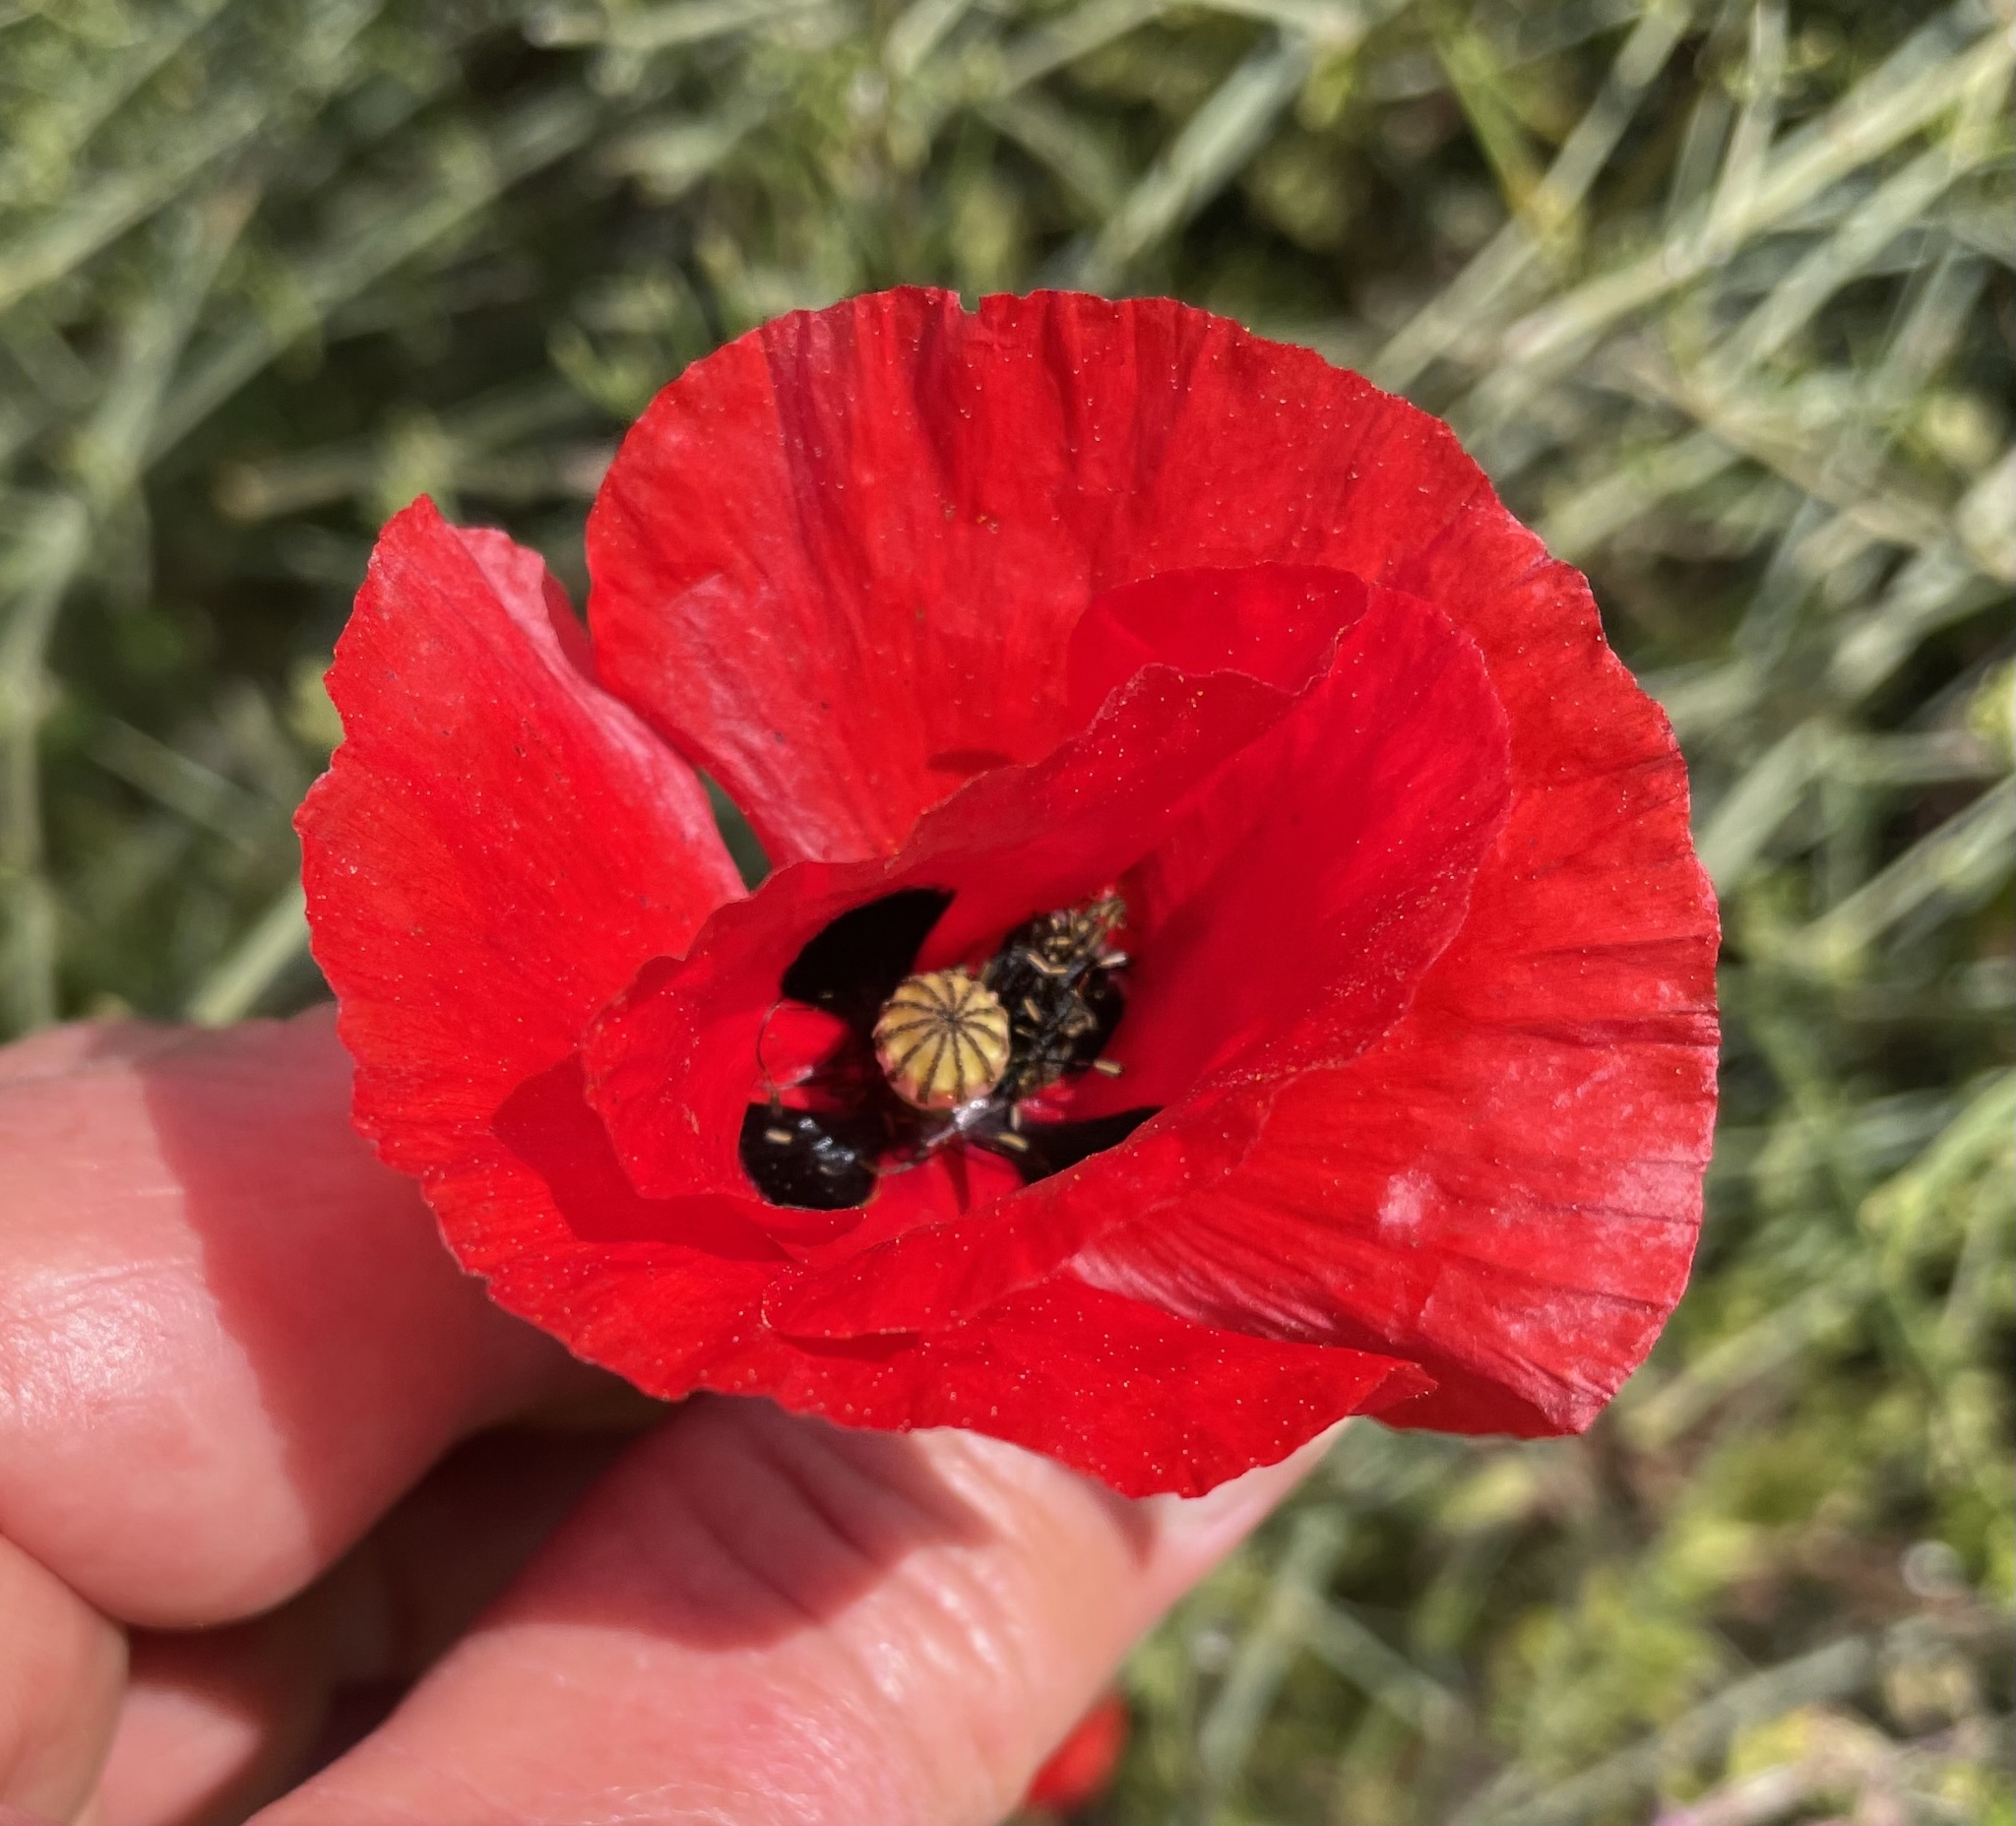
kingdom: Plantae
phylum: Tracheophyta
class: Magnoliopsida
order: Ranunculales
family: Papaveraceae
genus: Papaver
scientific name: Papaver umbonatum
